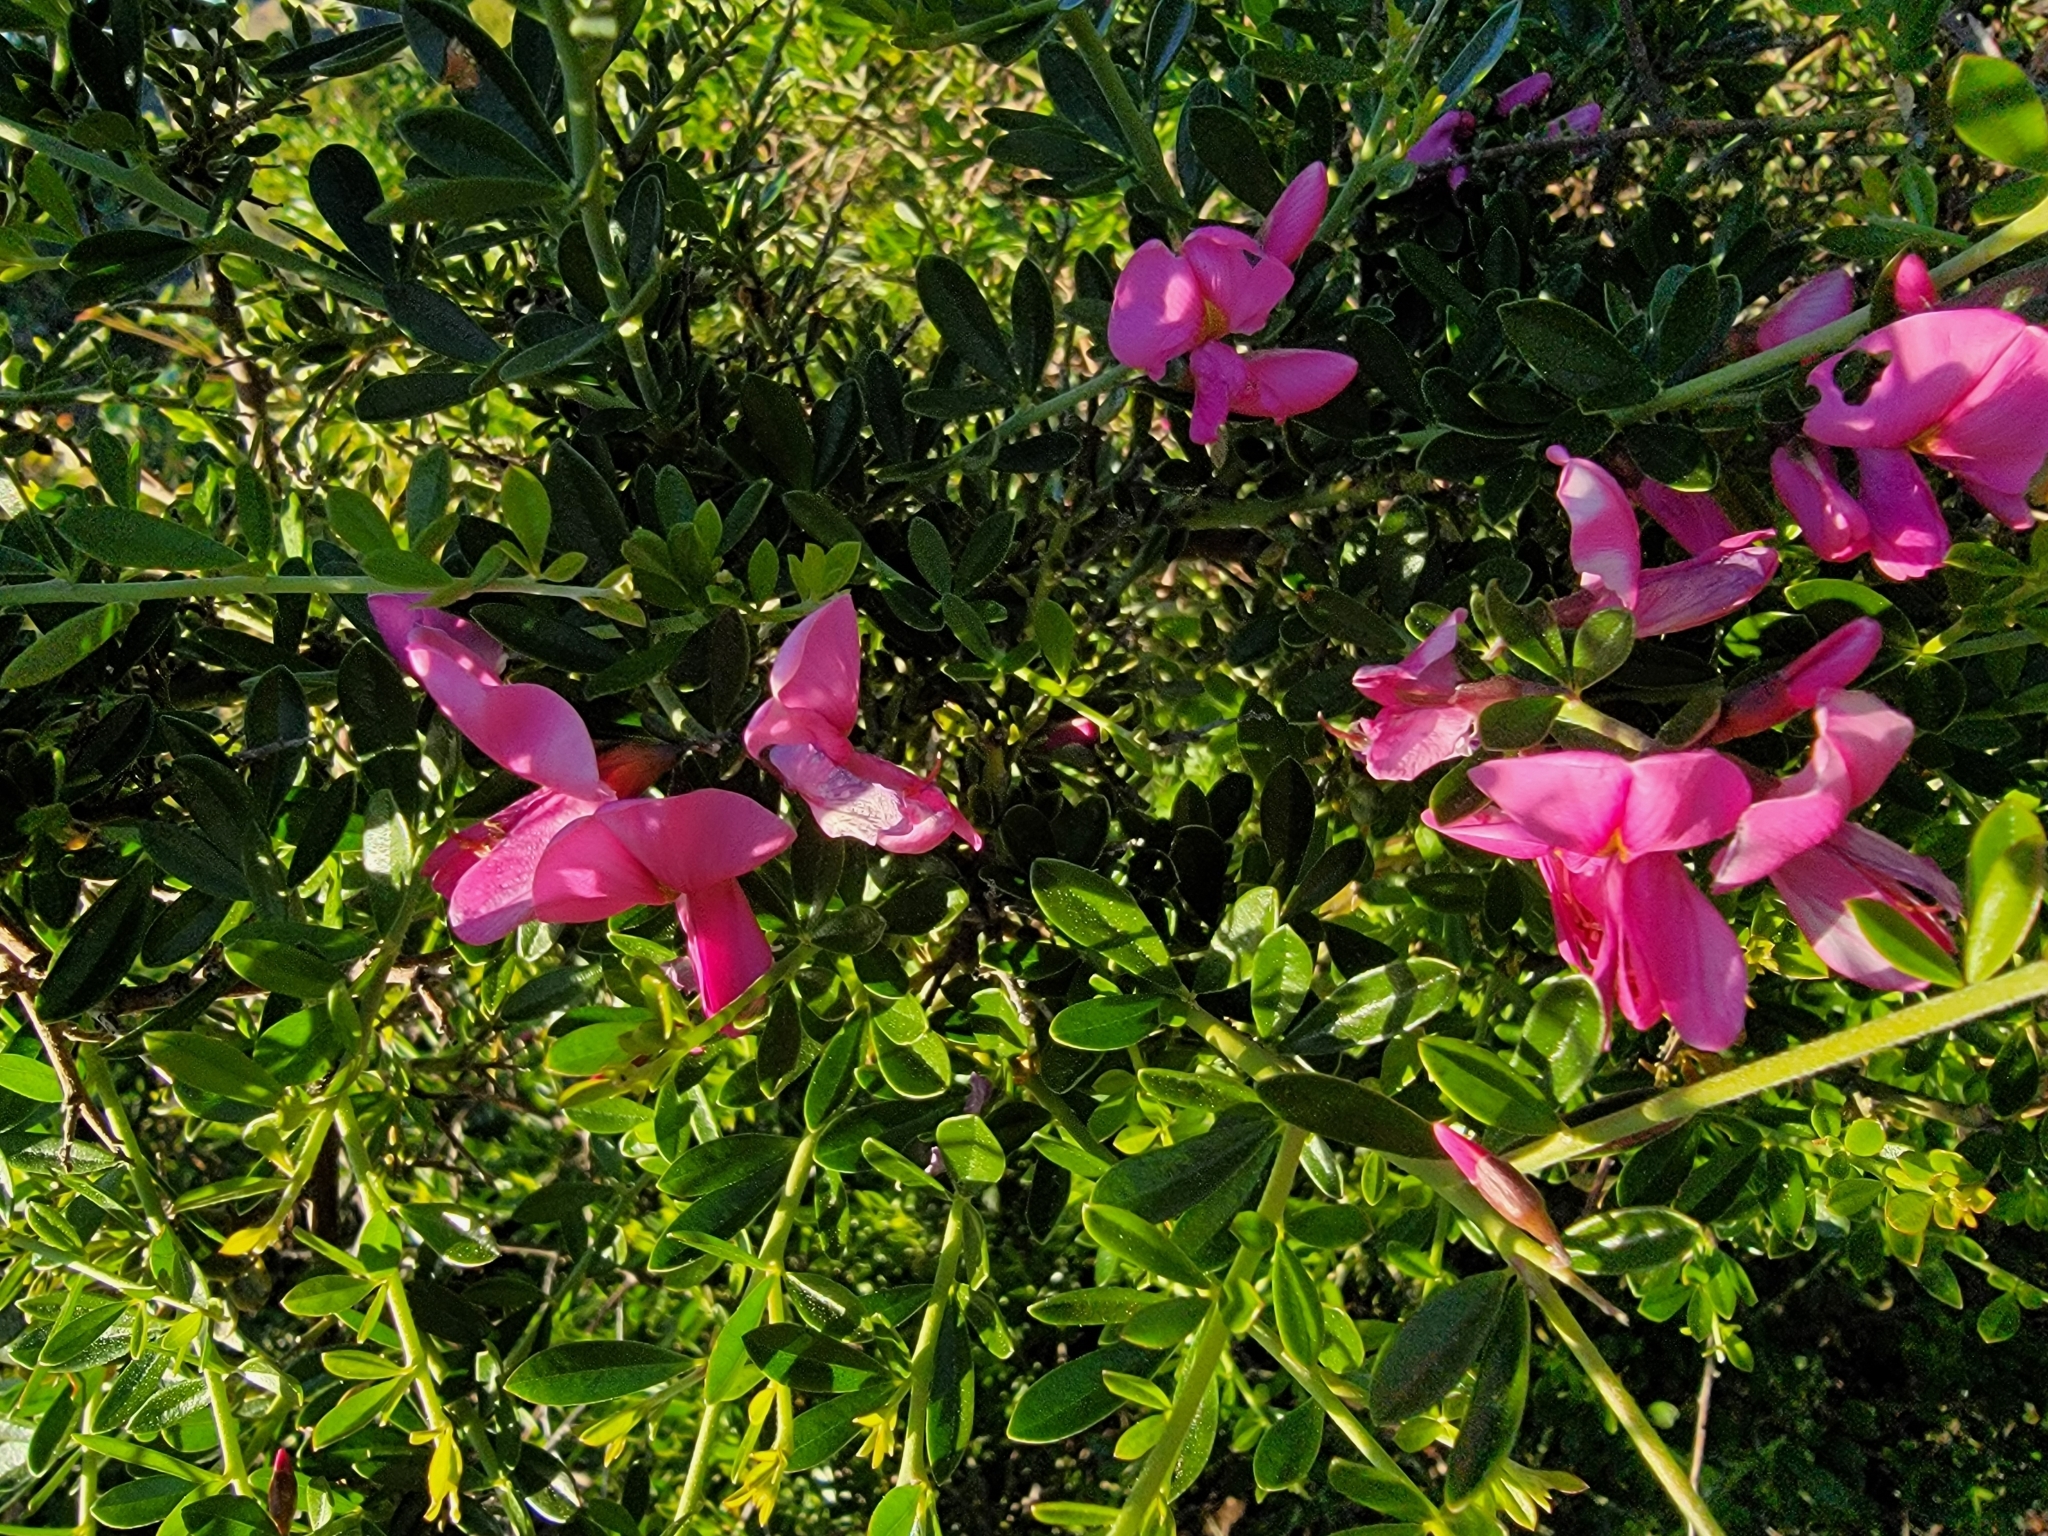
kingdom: Plantae
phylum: Tracheophyta
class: Magnoliopsida
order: Fabales
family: Fabaceae
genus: Pickeringia
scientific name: Pickeringia montana
